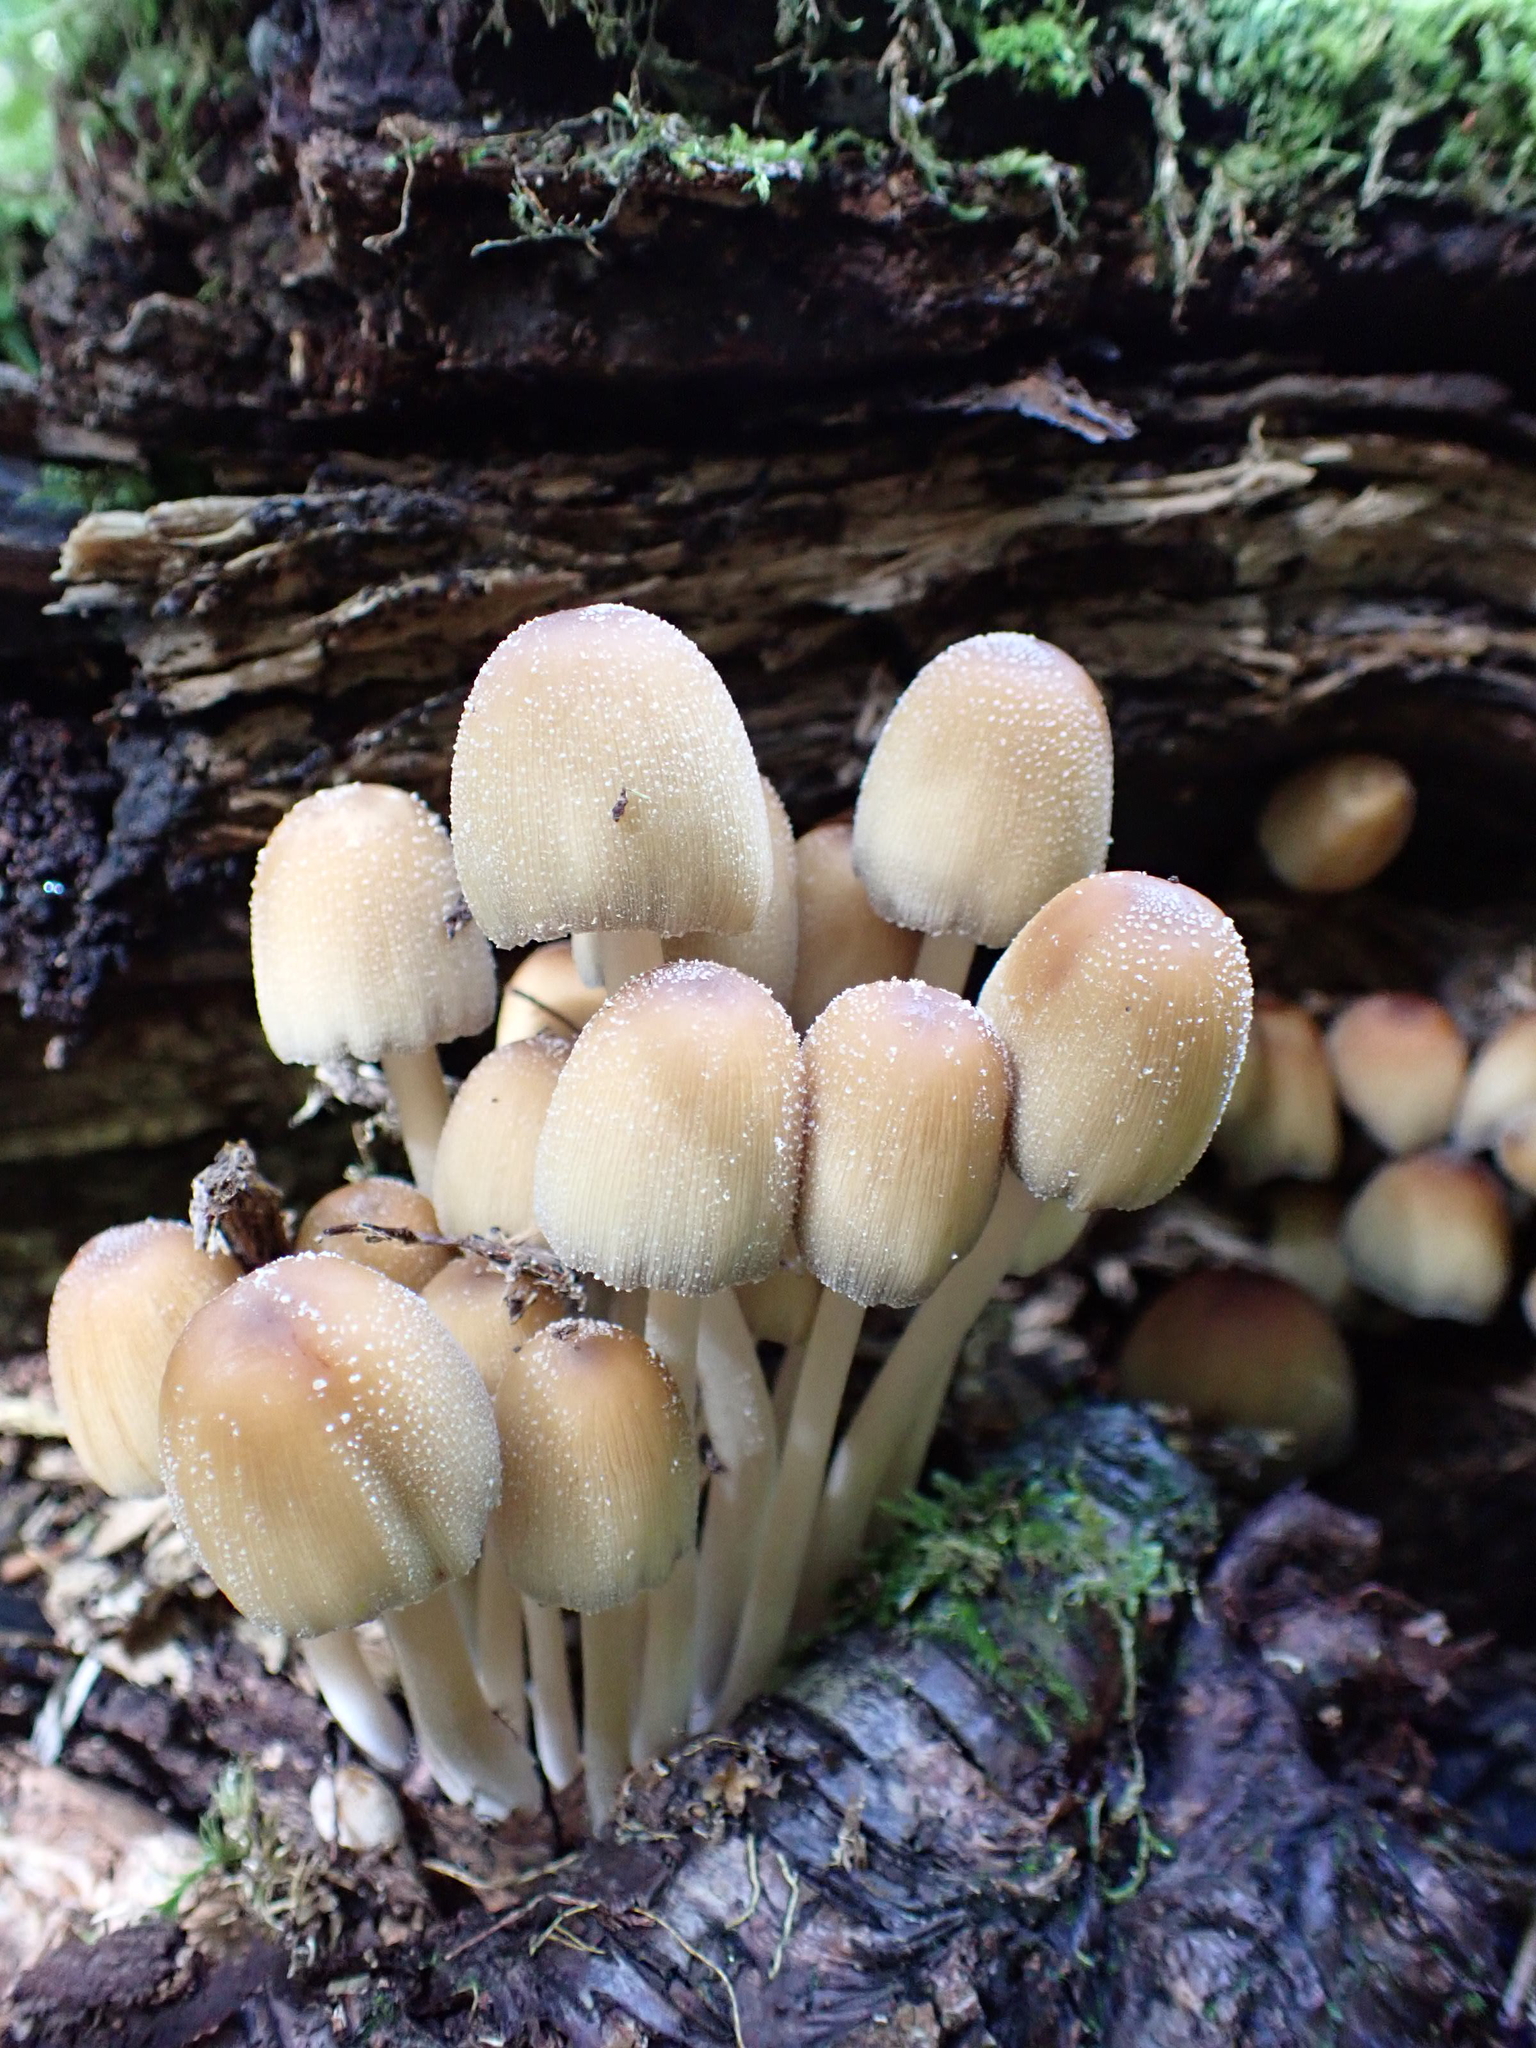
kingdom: Fungi
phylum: Basidiomycota
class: Agaricomycetes
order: Agaricales
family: Psathyrellaceae
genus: Coprinellus
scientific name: Coprinellus micaceus
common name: Glistening ink-cap
